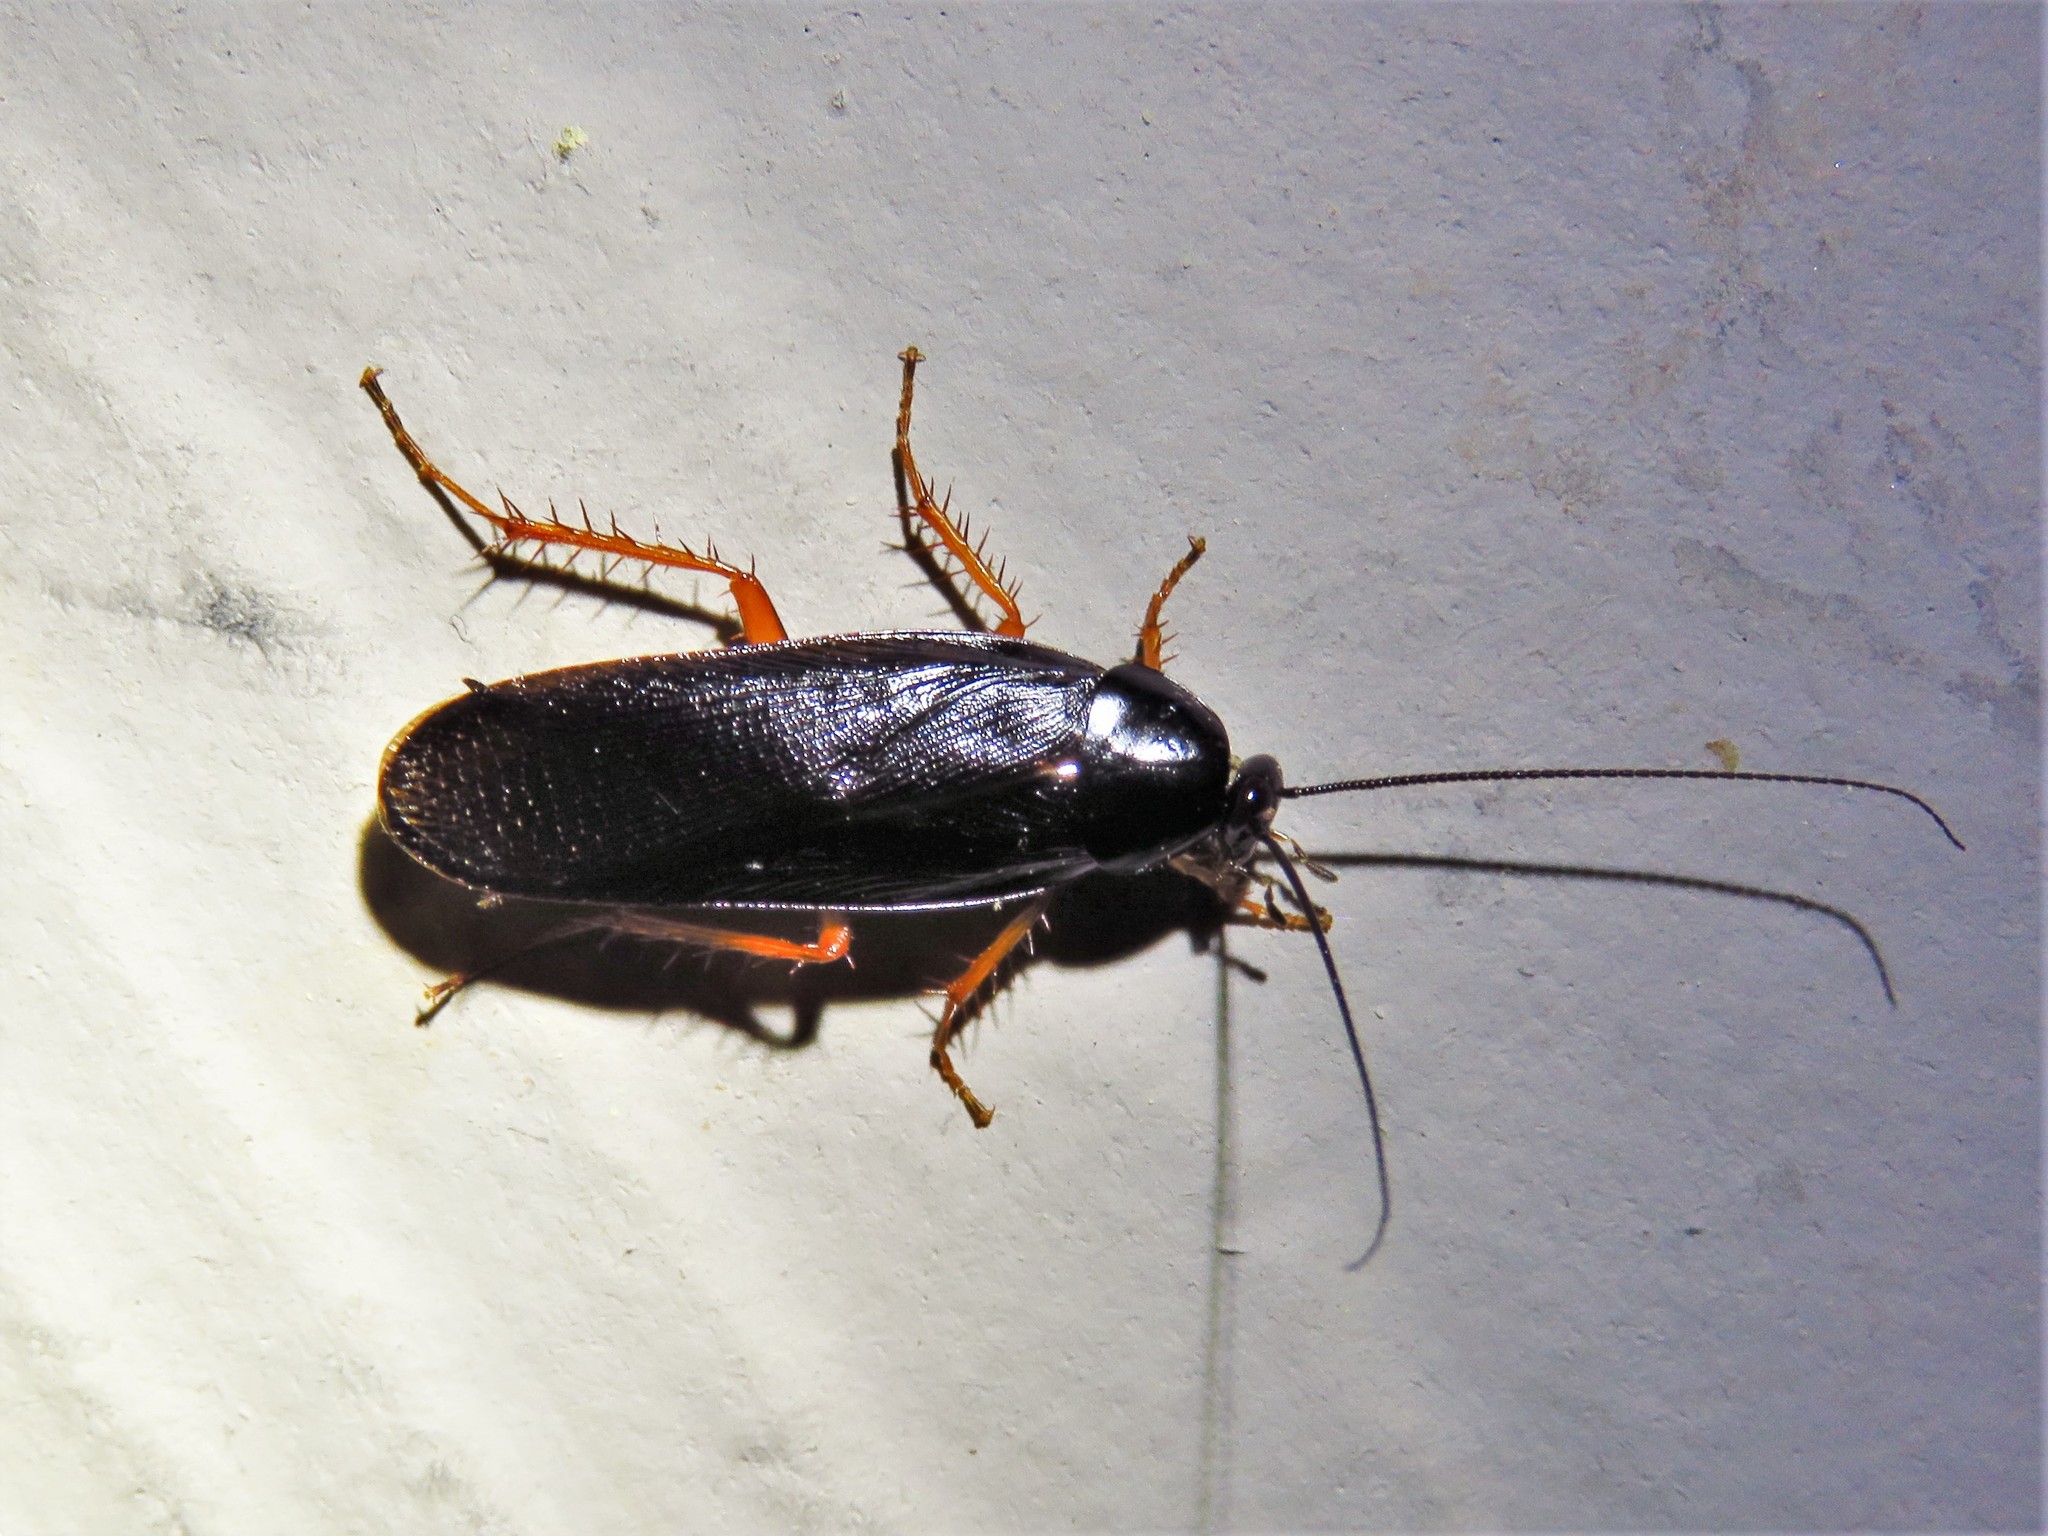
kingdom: Animalia
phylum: Arthropoda
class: Insecta
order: Blattodea
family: Ectobiidae
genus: Ischnoptera
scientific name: Ischnoptera deropeltiformis
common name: Dark wood cockroach
